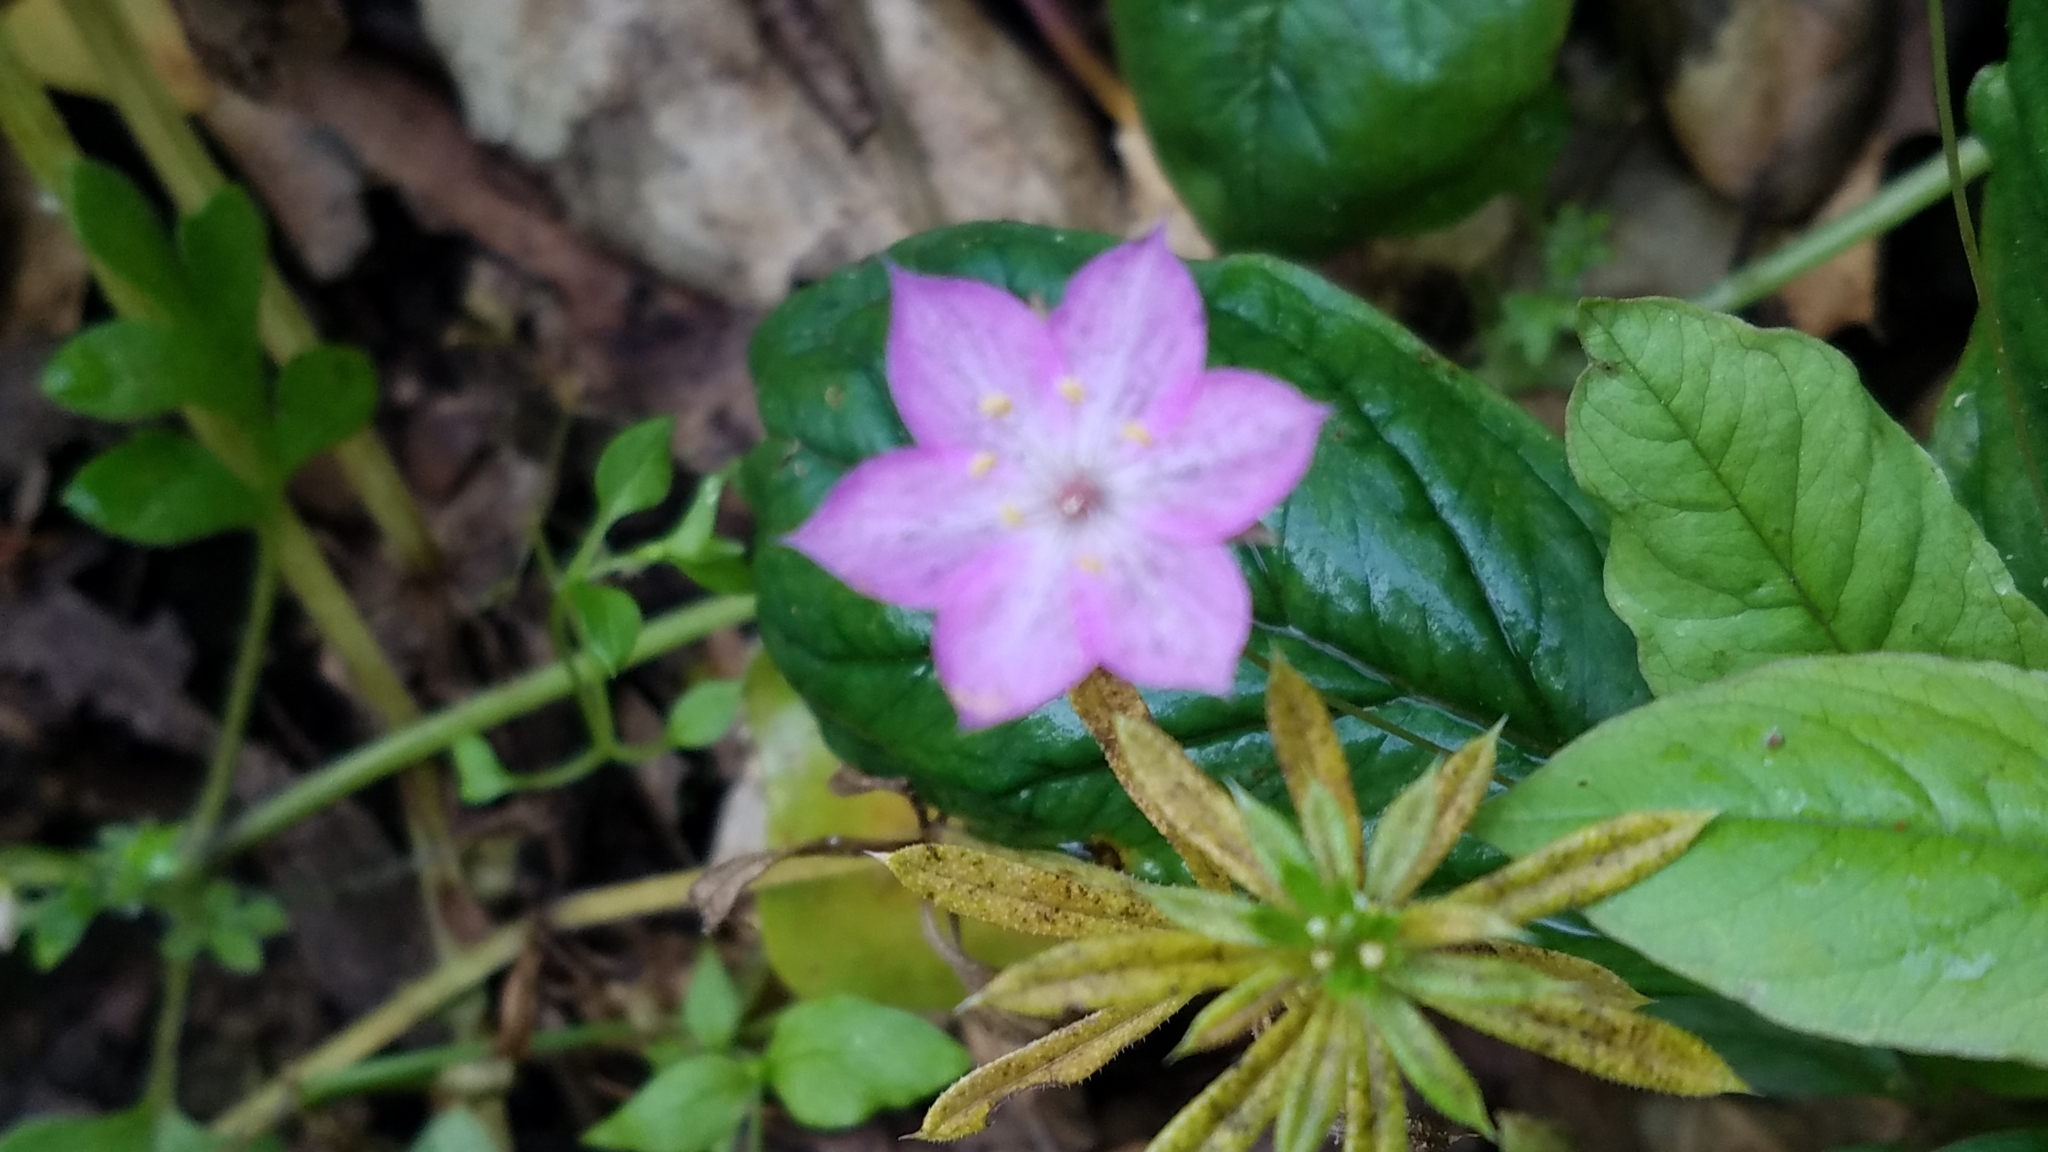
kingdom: Plantae
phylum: Tracheophyta
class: Magnoliopsida
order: Ericales
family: Primulaceae
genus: Lysimachia
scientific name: Lysimachia latifolia
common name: Pacific starflower
